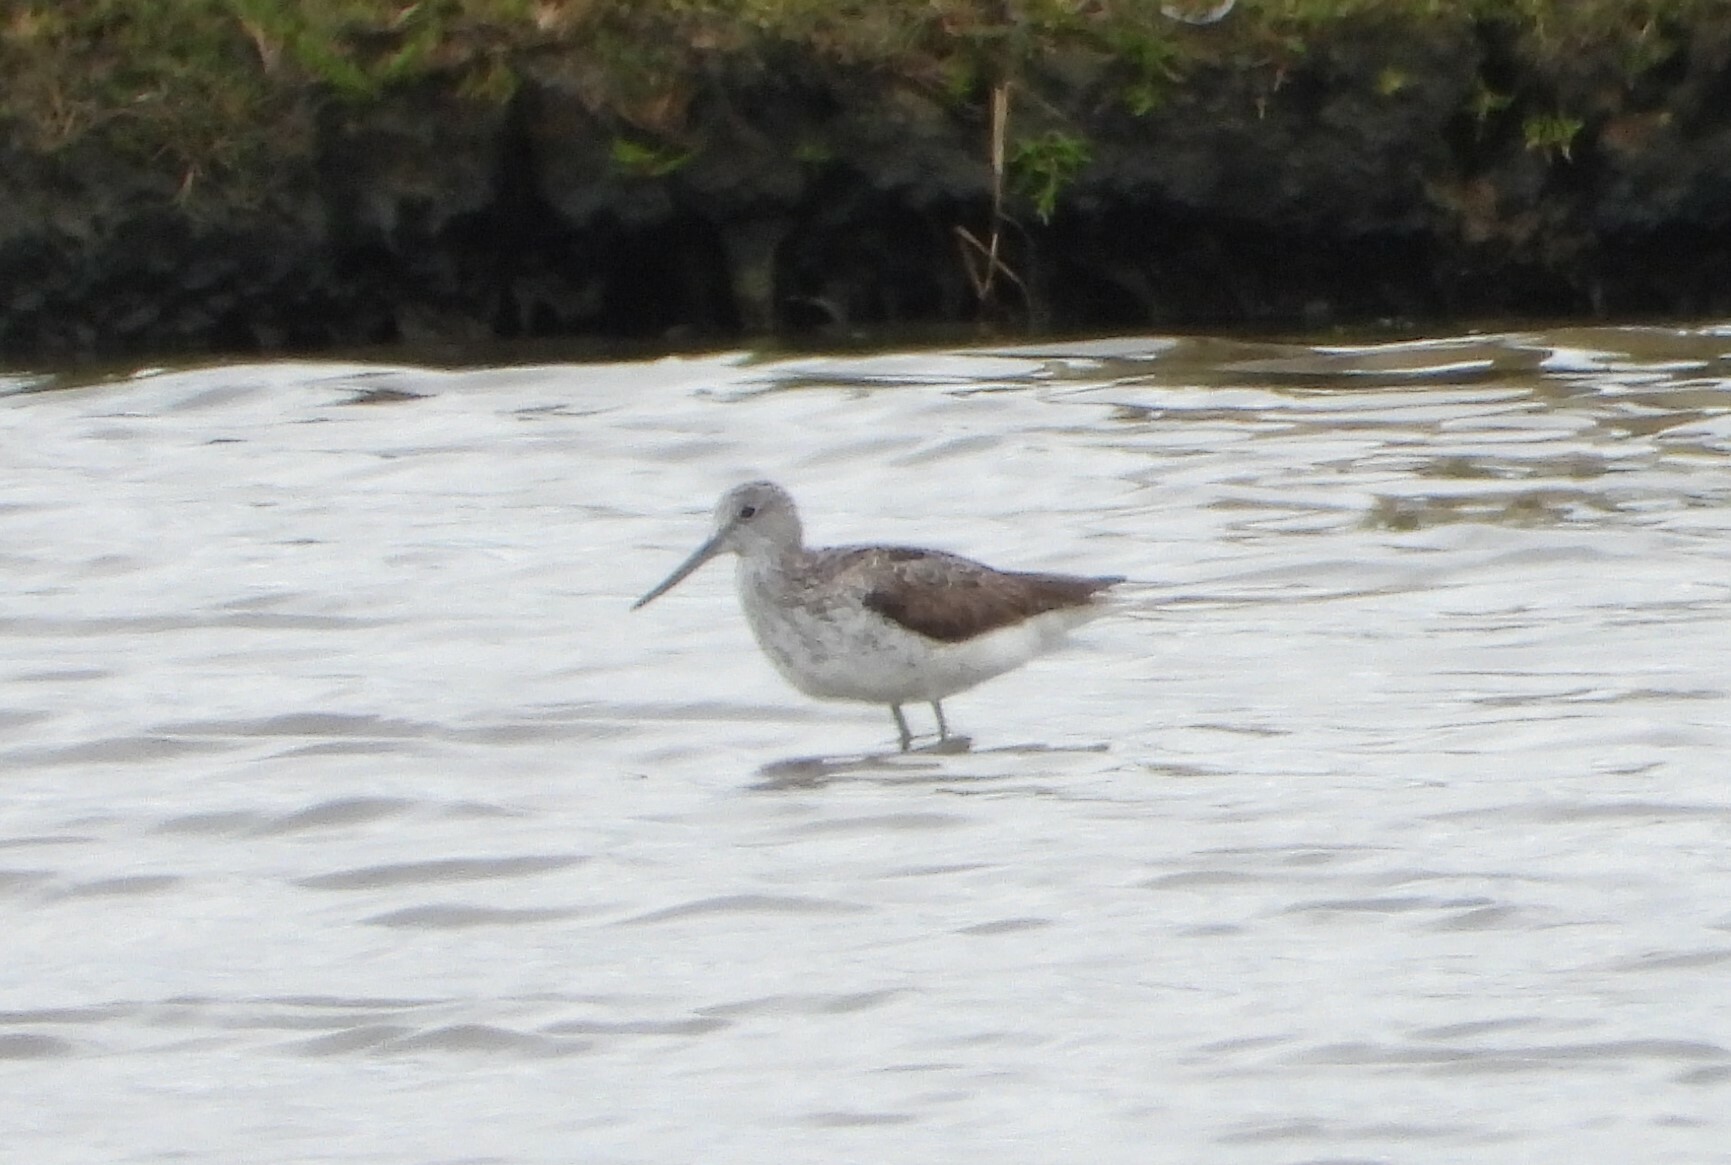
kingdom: Animalia
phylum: Chordata
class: Aves
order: Charadriiformes
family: Scolopacidae
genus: Tringa
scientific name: Tringa nebularia
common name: Common greenshank
